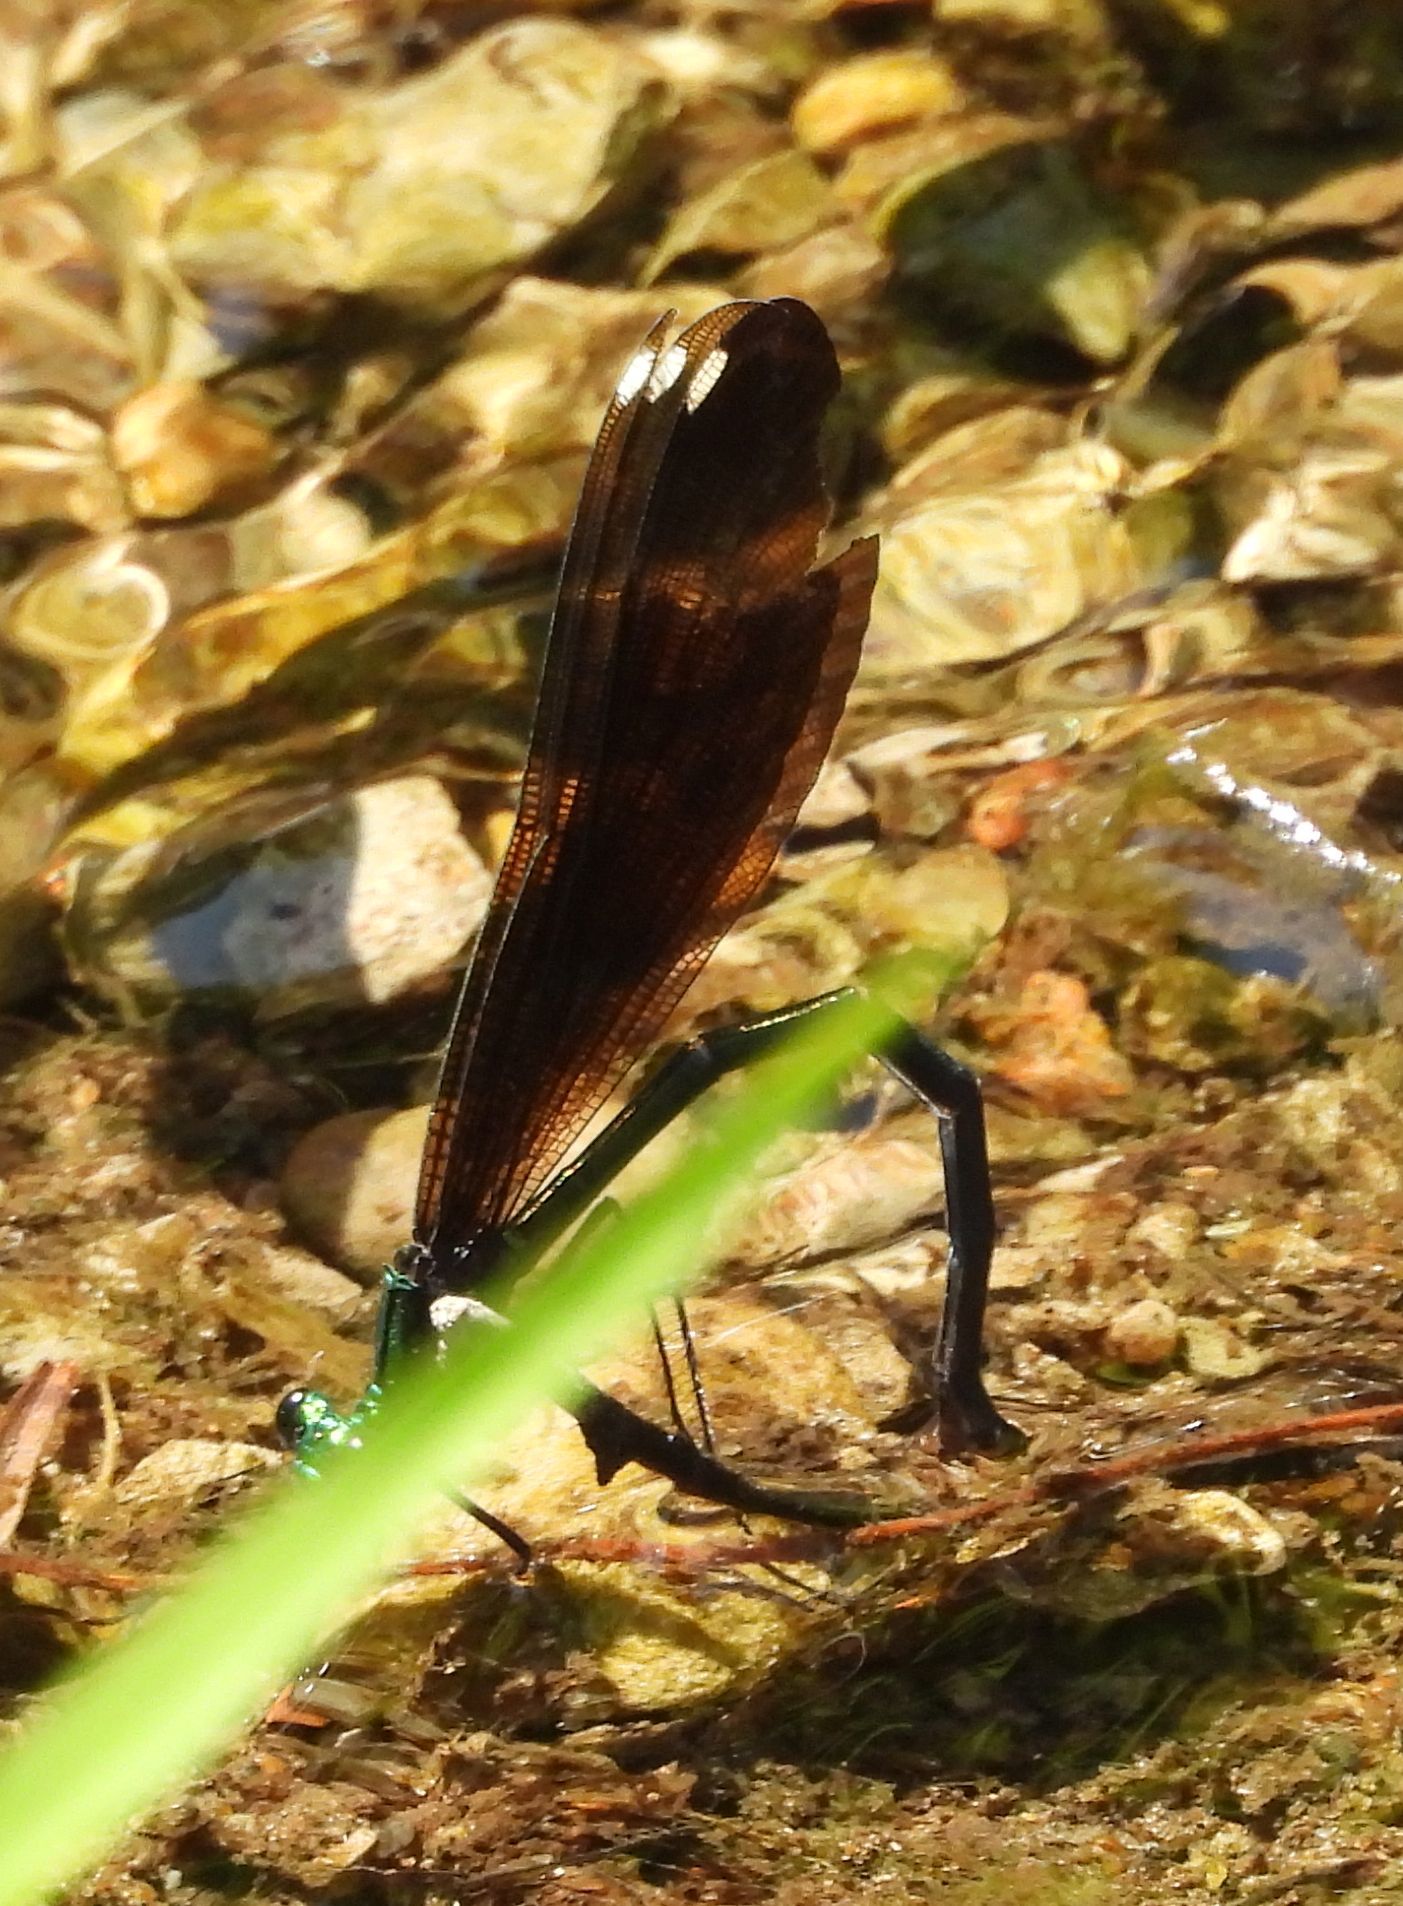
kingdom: Animalia
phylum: Arthropoda
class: Insecta
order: Odonata
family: Calopterygidae
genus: Calopteryx
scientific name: Calopteryx maculata
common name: Ebony jewelwing
